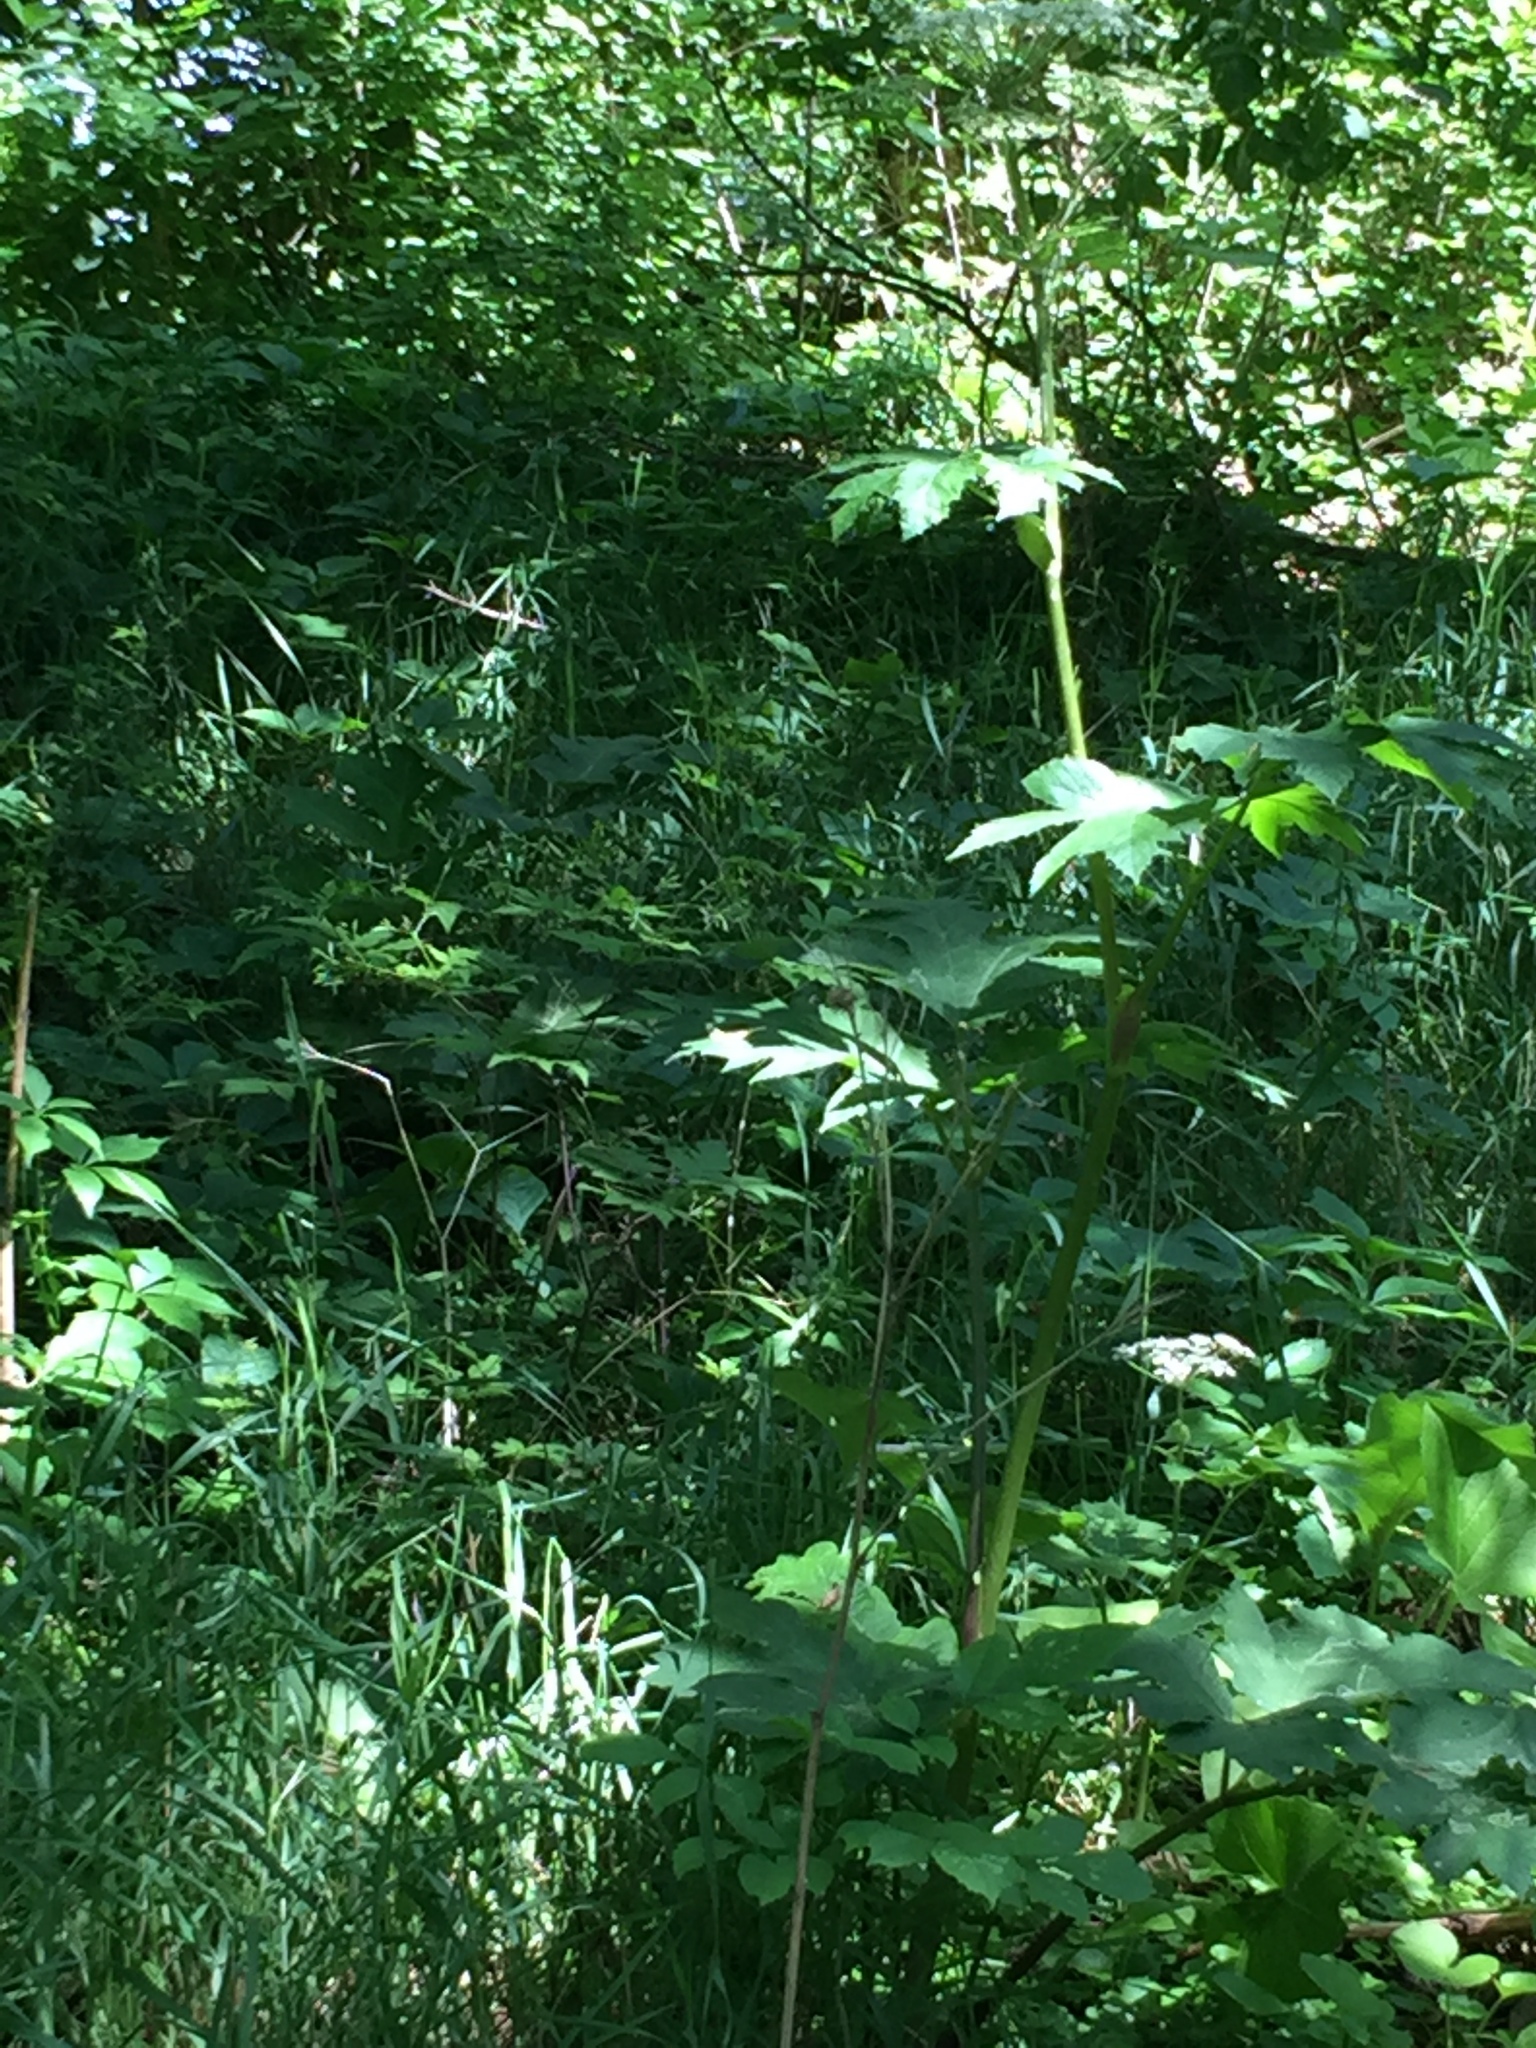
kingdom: Plantae
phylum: Tracheophyta
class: Magnoliopsida
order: Apiales
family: Apiaceae
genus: Heracleum
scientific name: Heracleum maximum
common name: American cow parsnip
